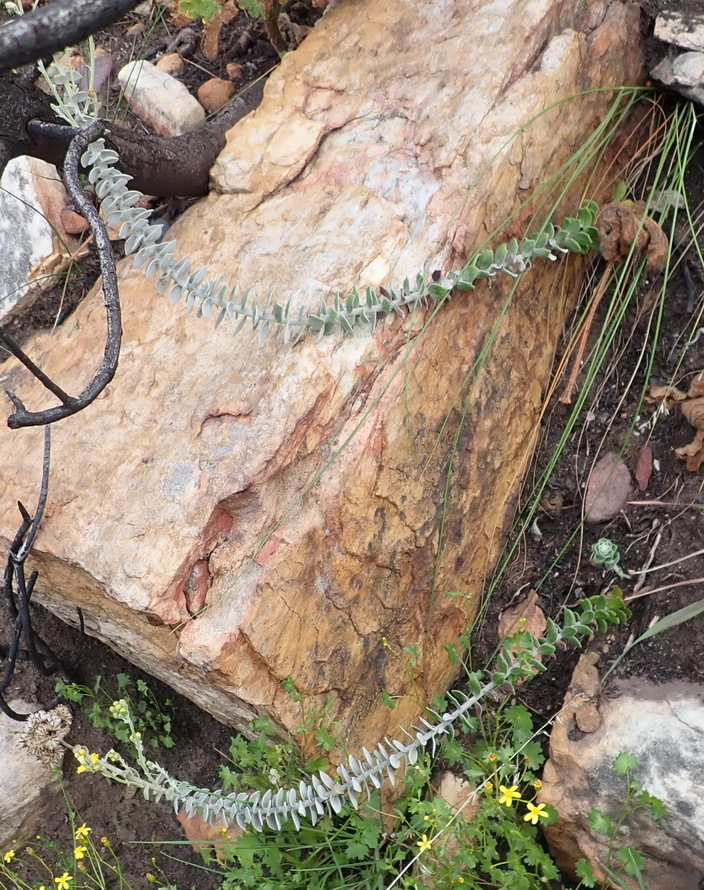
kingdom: Plantae
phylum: Tracheophyta
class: Magnoliopsida
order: Asterales
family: Asteraceae
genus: Senecio
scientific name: Senecio pauciflosculosus
